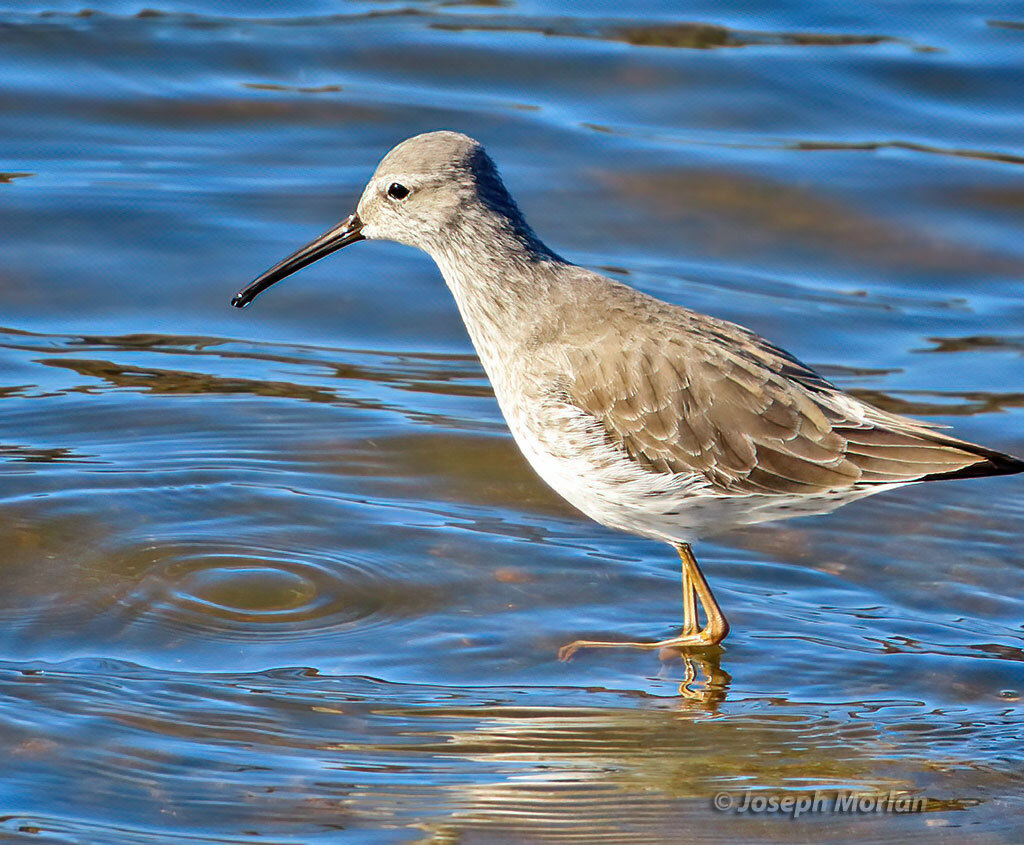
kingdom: Animalia
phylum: Chordata
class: Aves
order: Charadriiformes
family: Scolopacidae
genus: Calidris
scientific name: Calidris himantopus
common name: Stilt sandpiper
